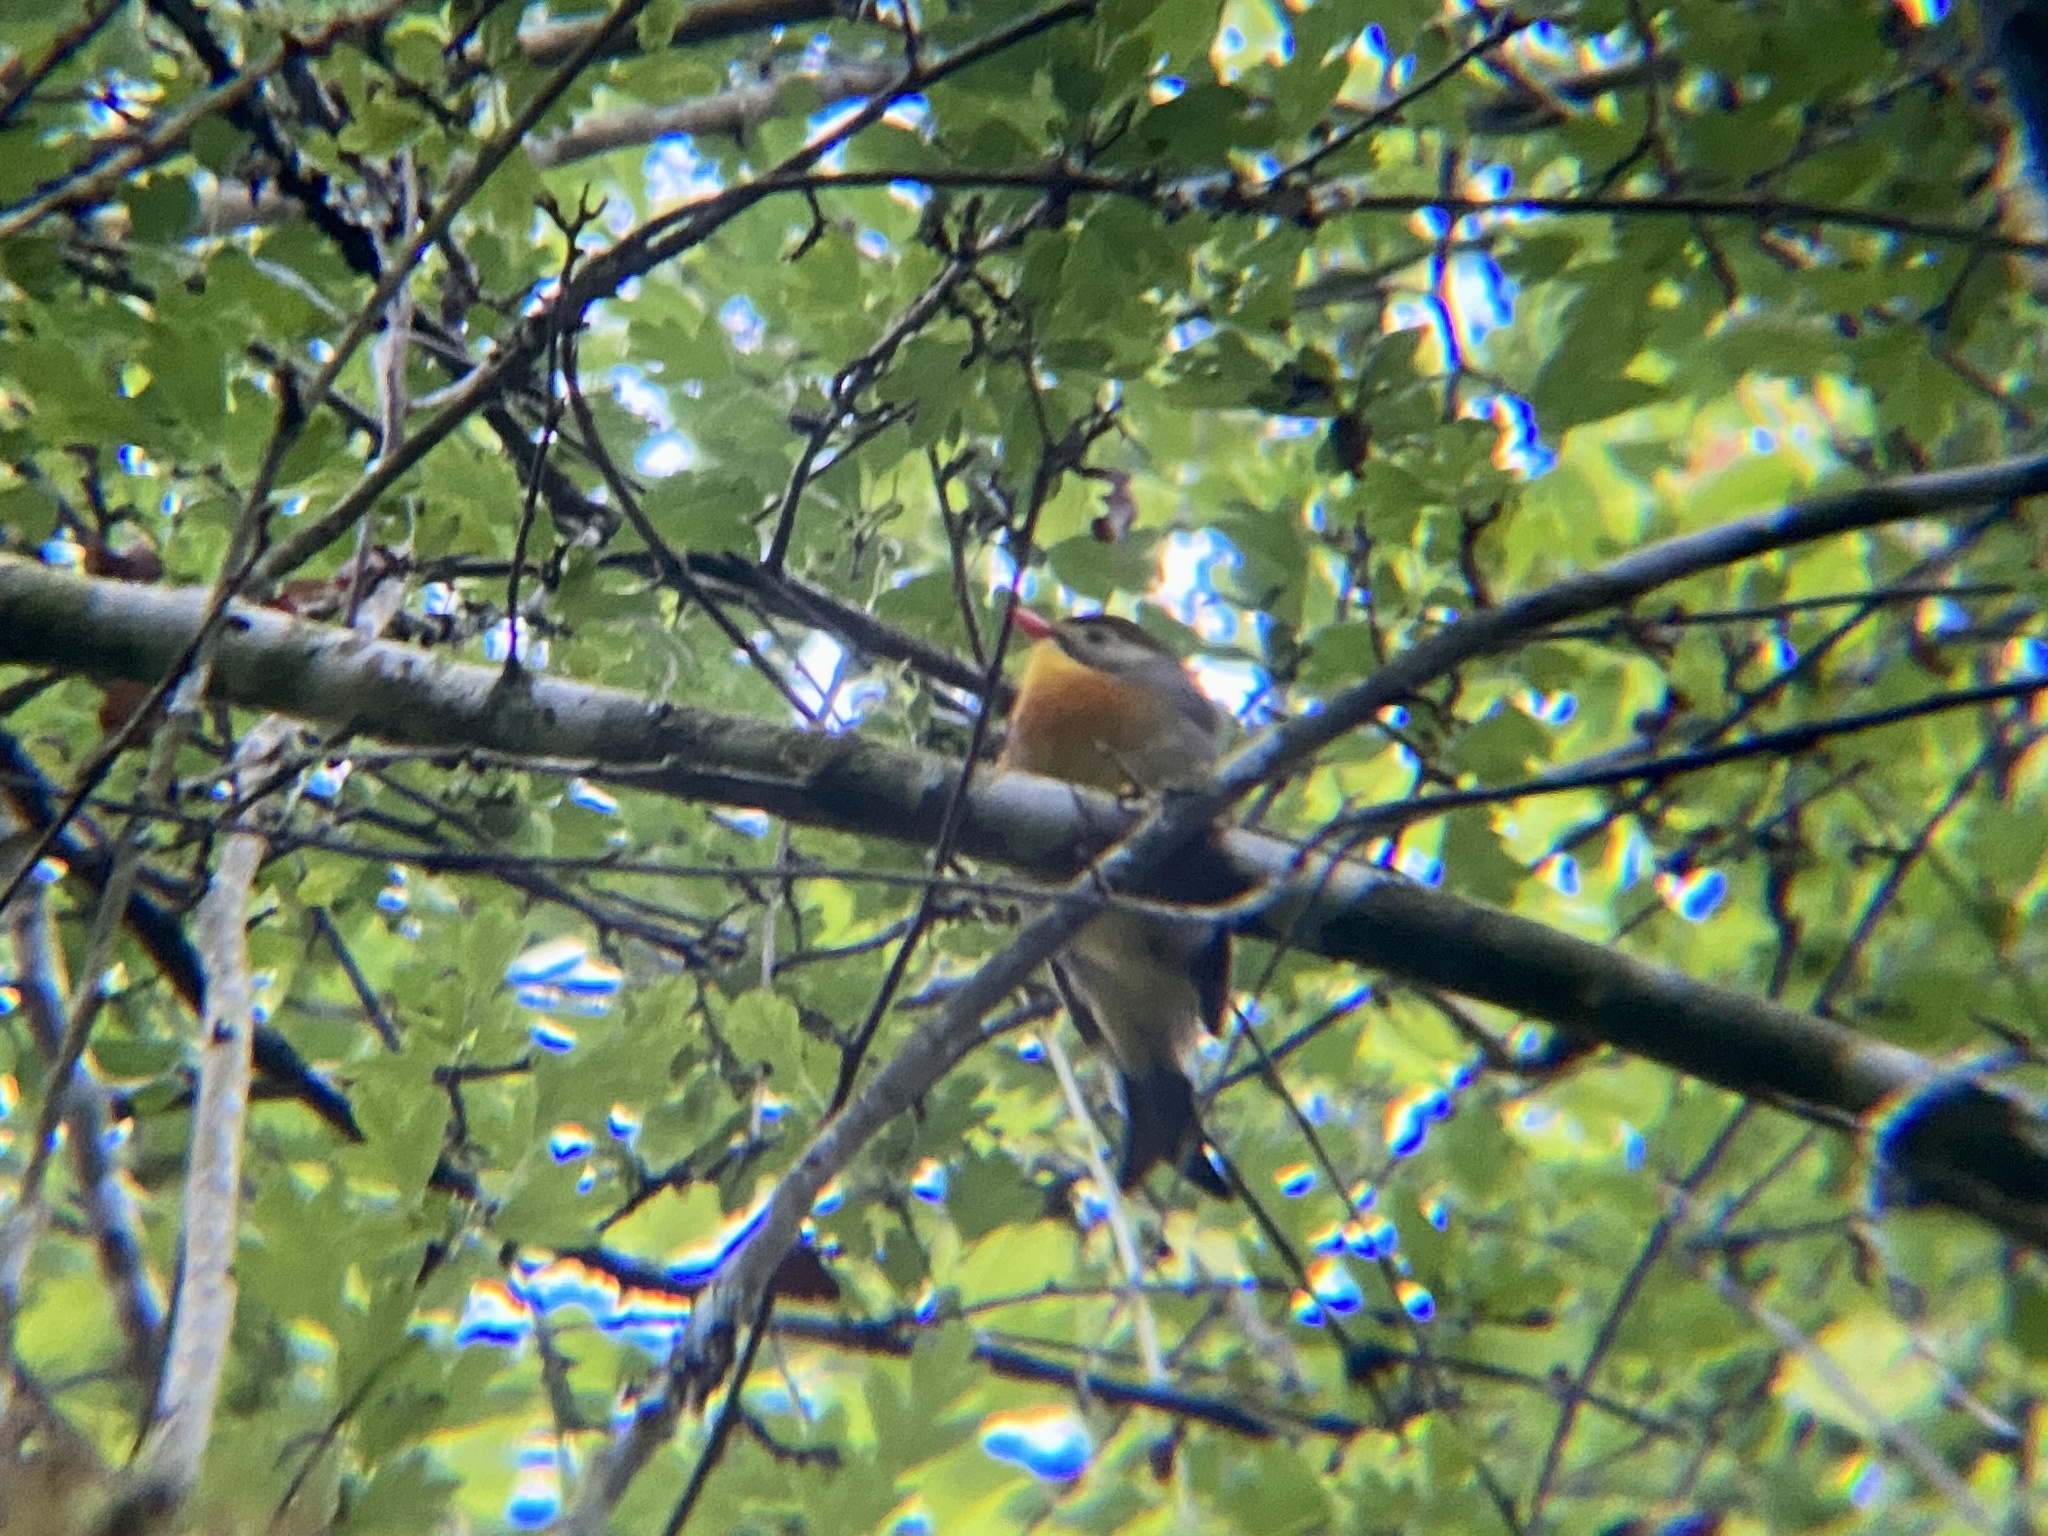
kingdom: Animalia
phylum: Chordata
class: Aves
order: Passeriformes
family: Leiothrichidae
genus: Leiothrix
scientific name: Leiothrix lutea
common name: Red-billed leiothrix
